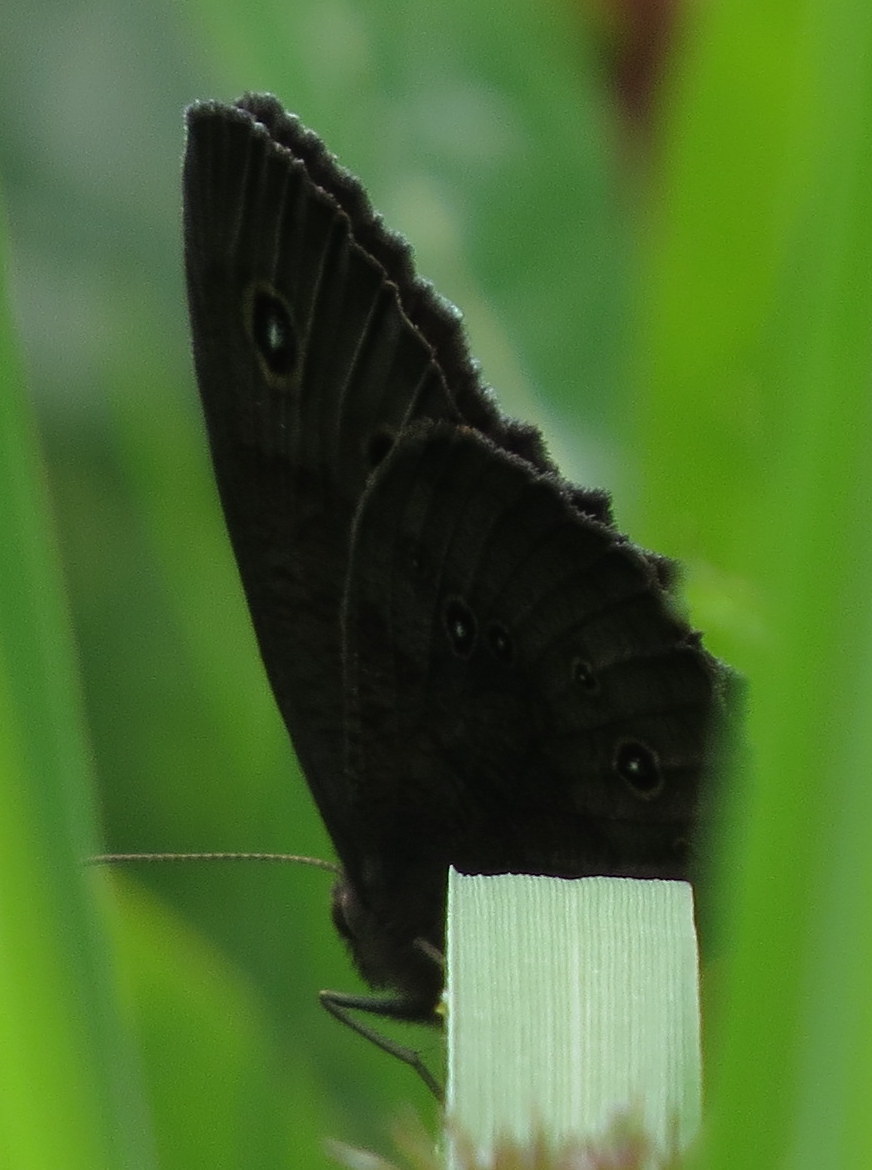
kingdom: Animalia
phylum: Arthropoda
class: Insecta
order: Lepidoptera
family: Nymphalidae
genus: Cercyonis
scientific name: Cercyonis pegala
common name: Common wood-nymph
